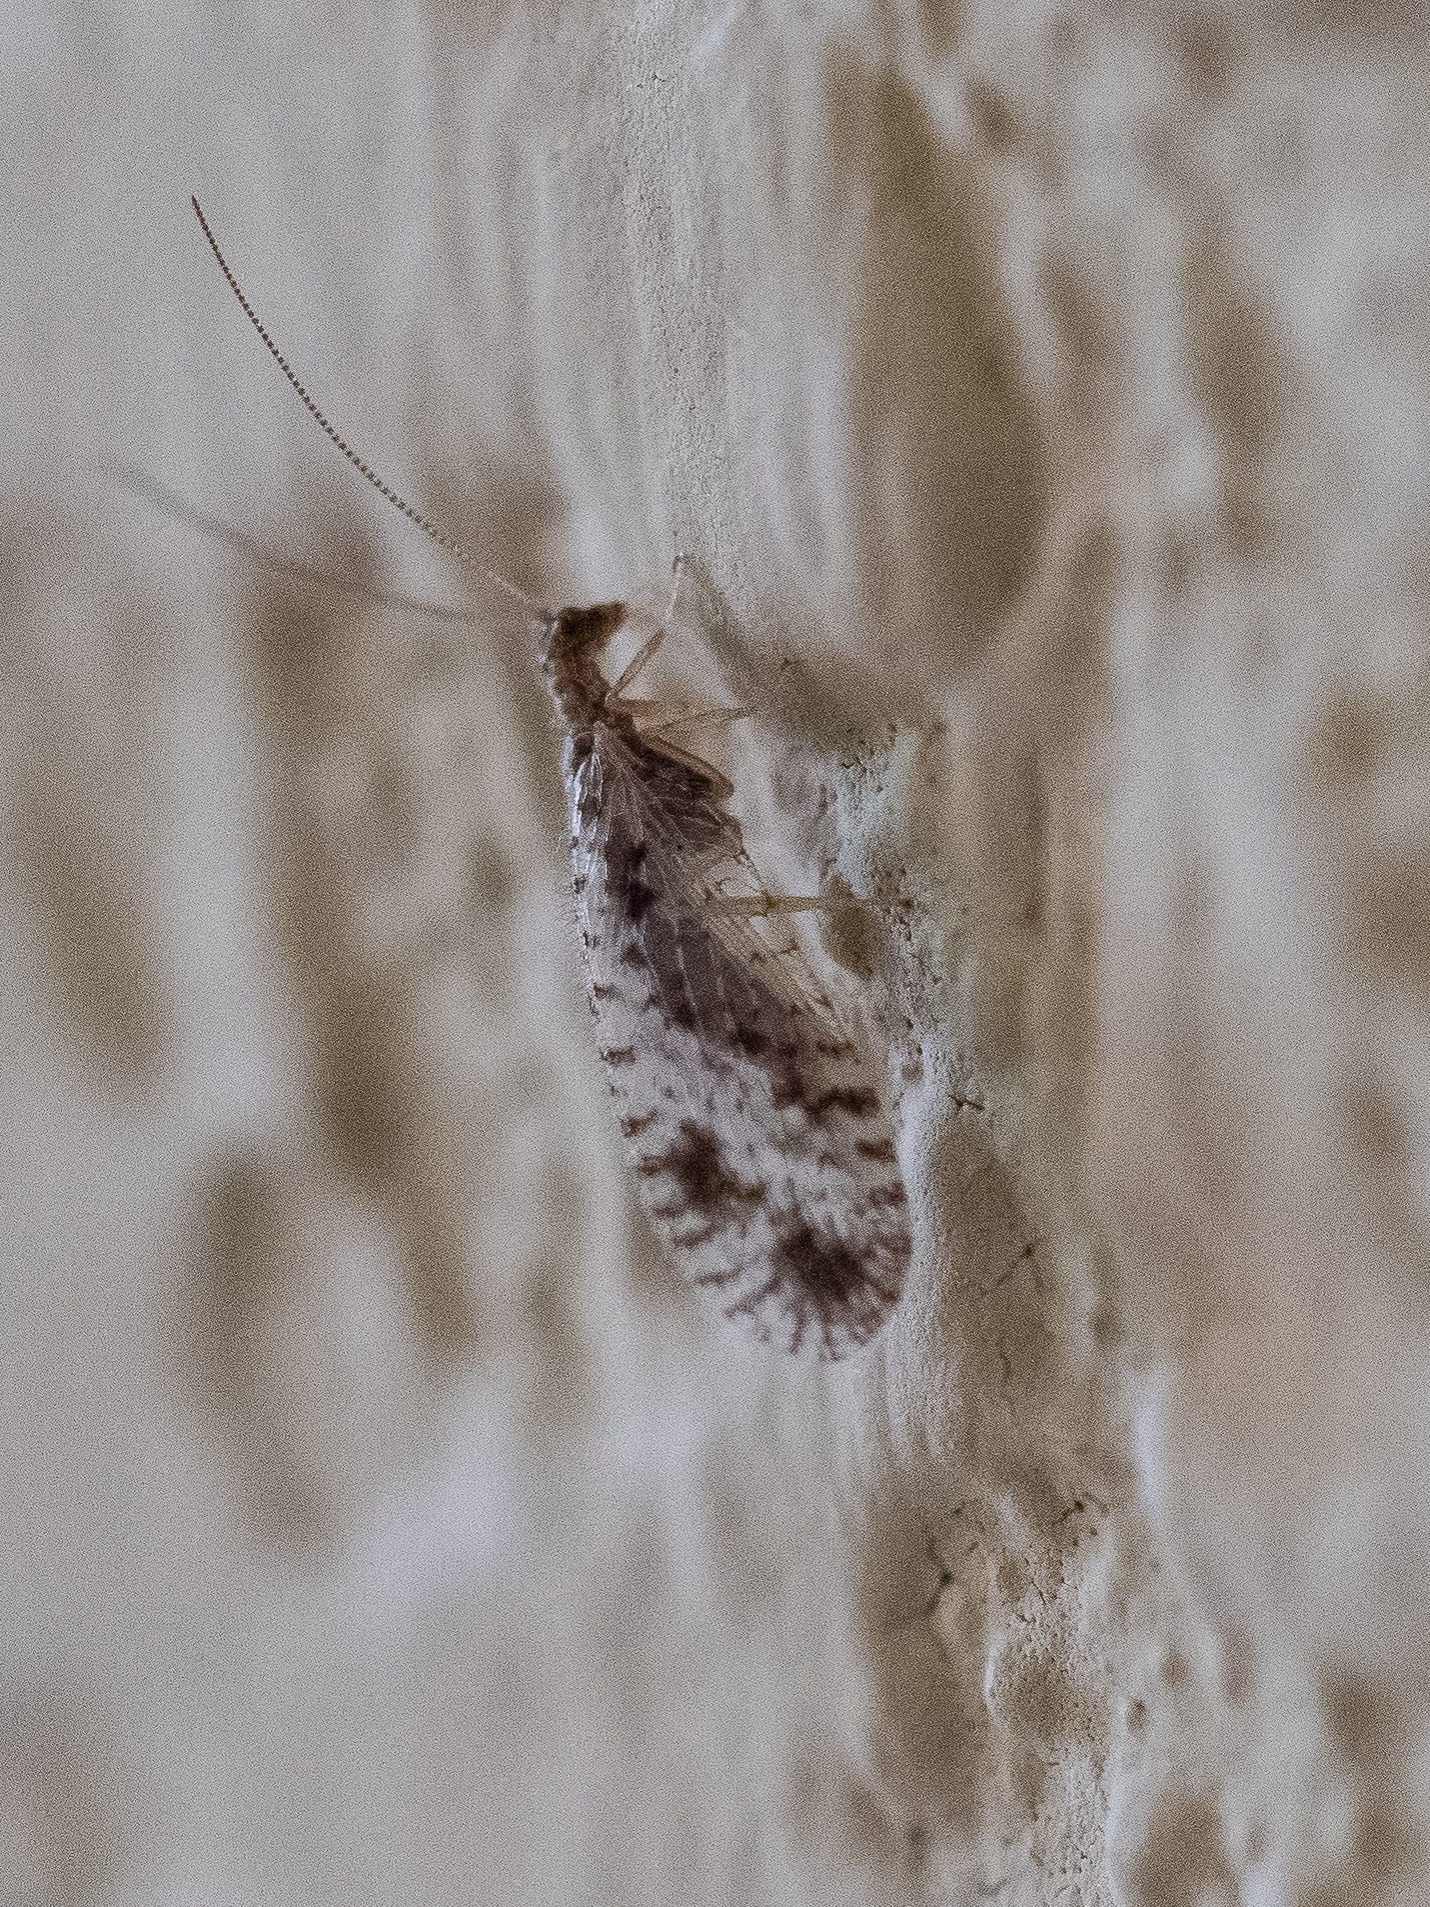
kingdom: Animalia
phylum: Arthropoda
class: Insecta
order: Neuroptera
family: Hemerobiidae
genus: Micromus
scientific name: Micromus variegatus
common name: Brown lacewing
